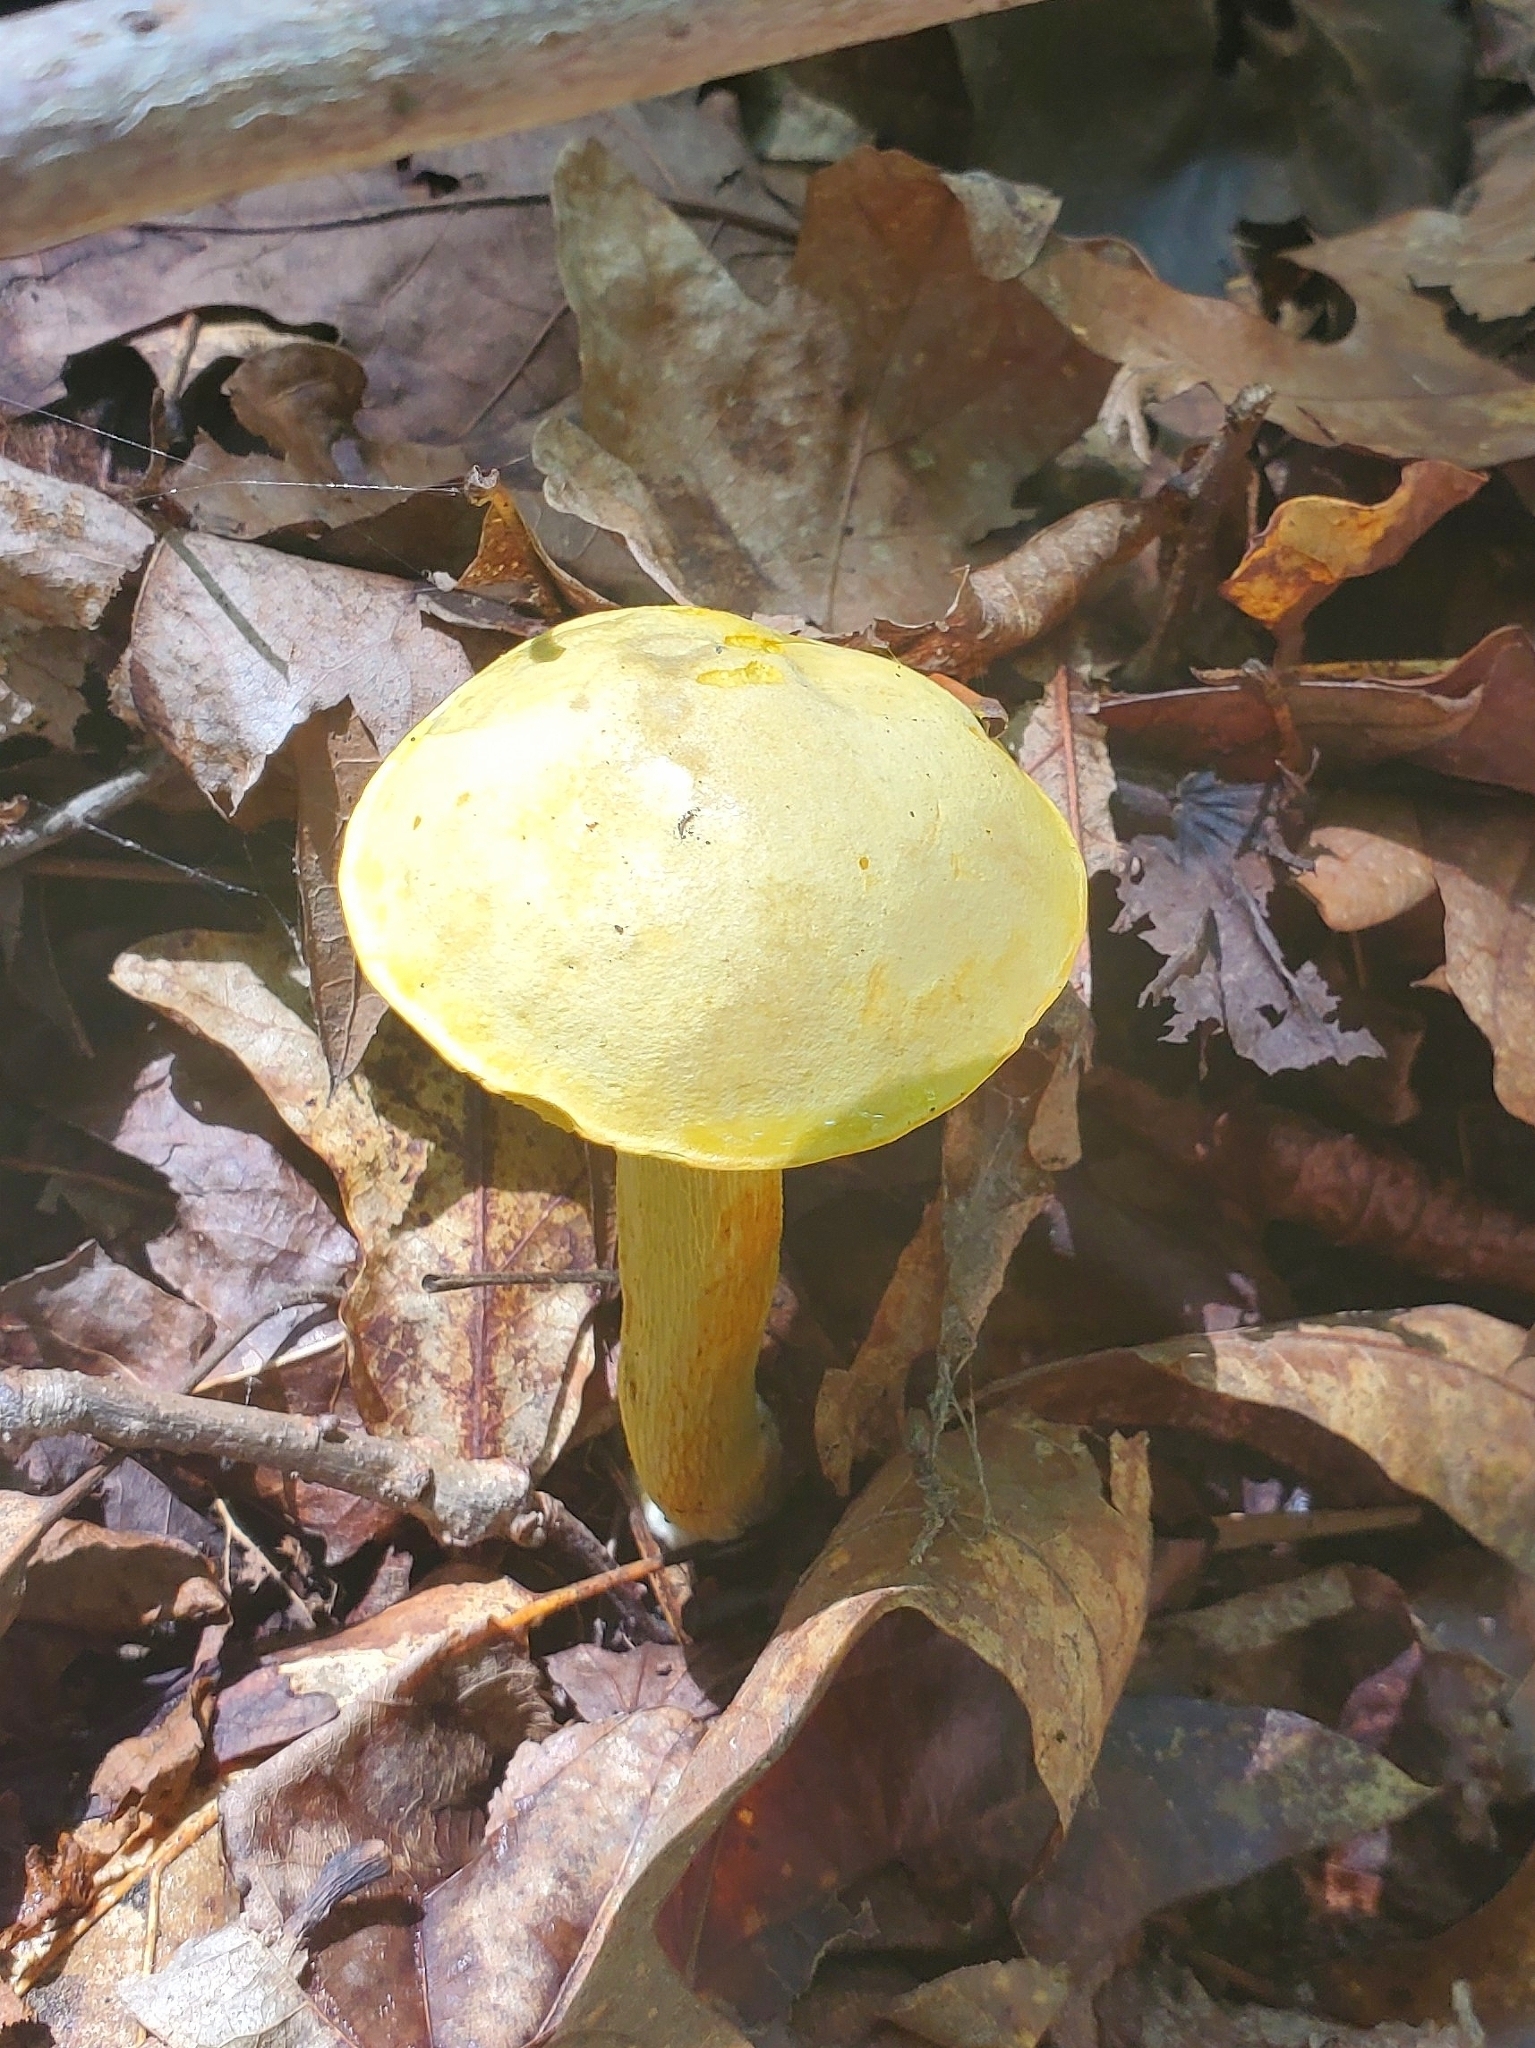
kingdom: Fungi
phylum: Basidiomycota
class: Agaricomycetes
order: Boletales
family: Boletaceae
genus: Retiboletus
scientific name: Retiboletus ornatipes
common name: Ornate-stalked bolete
